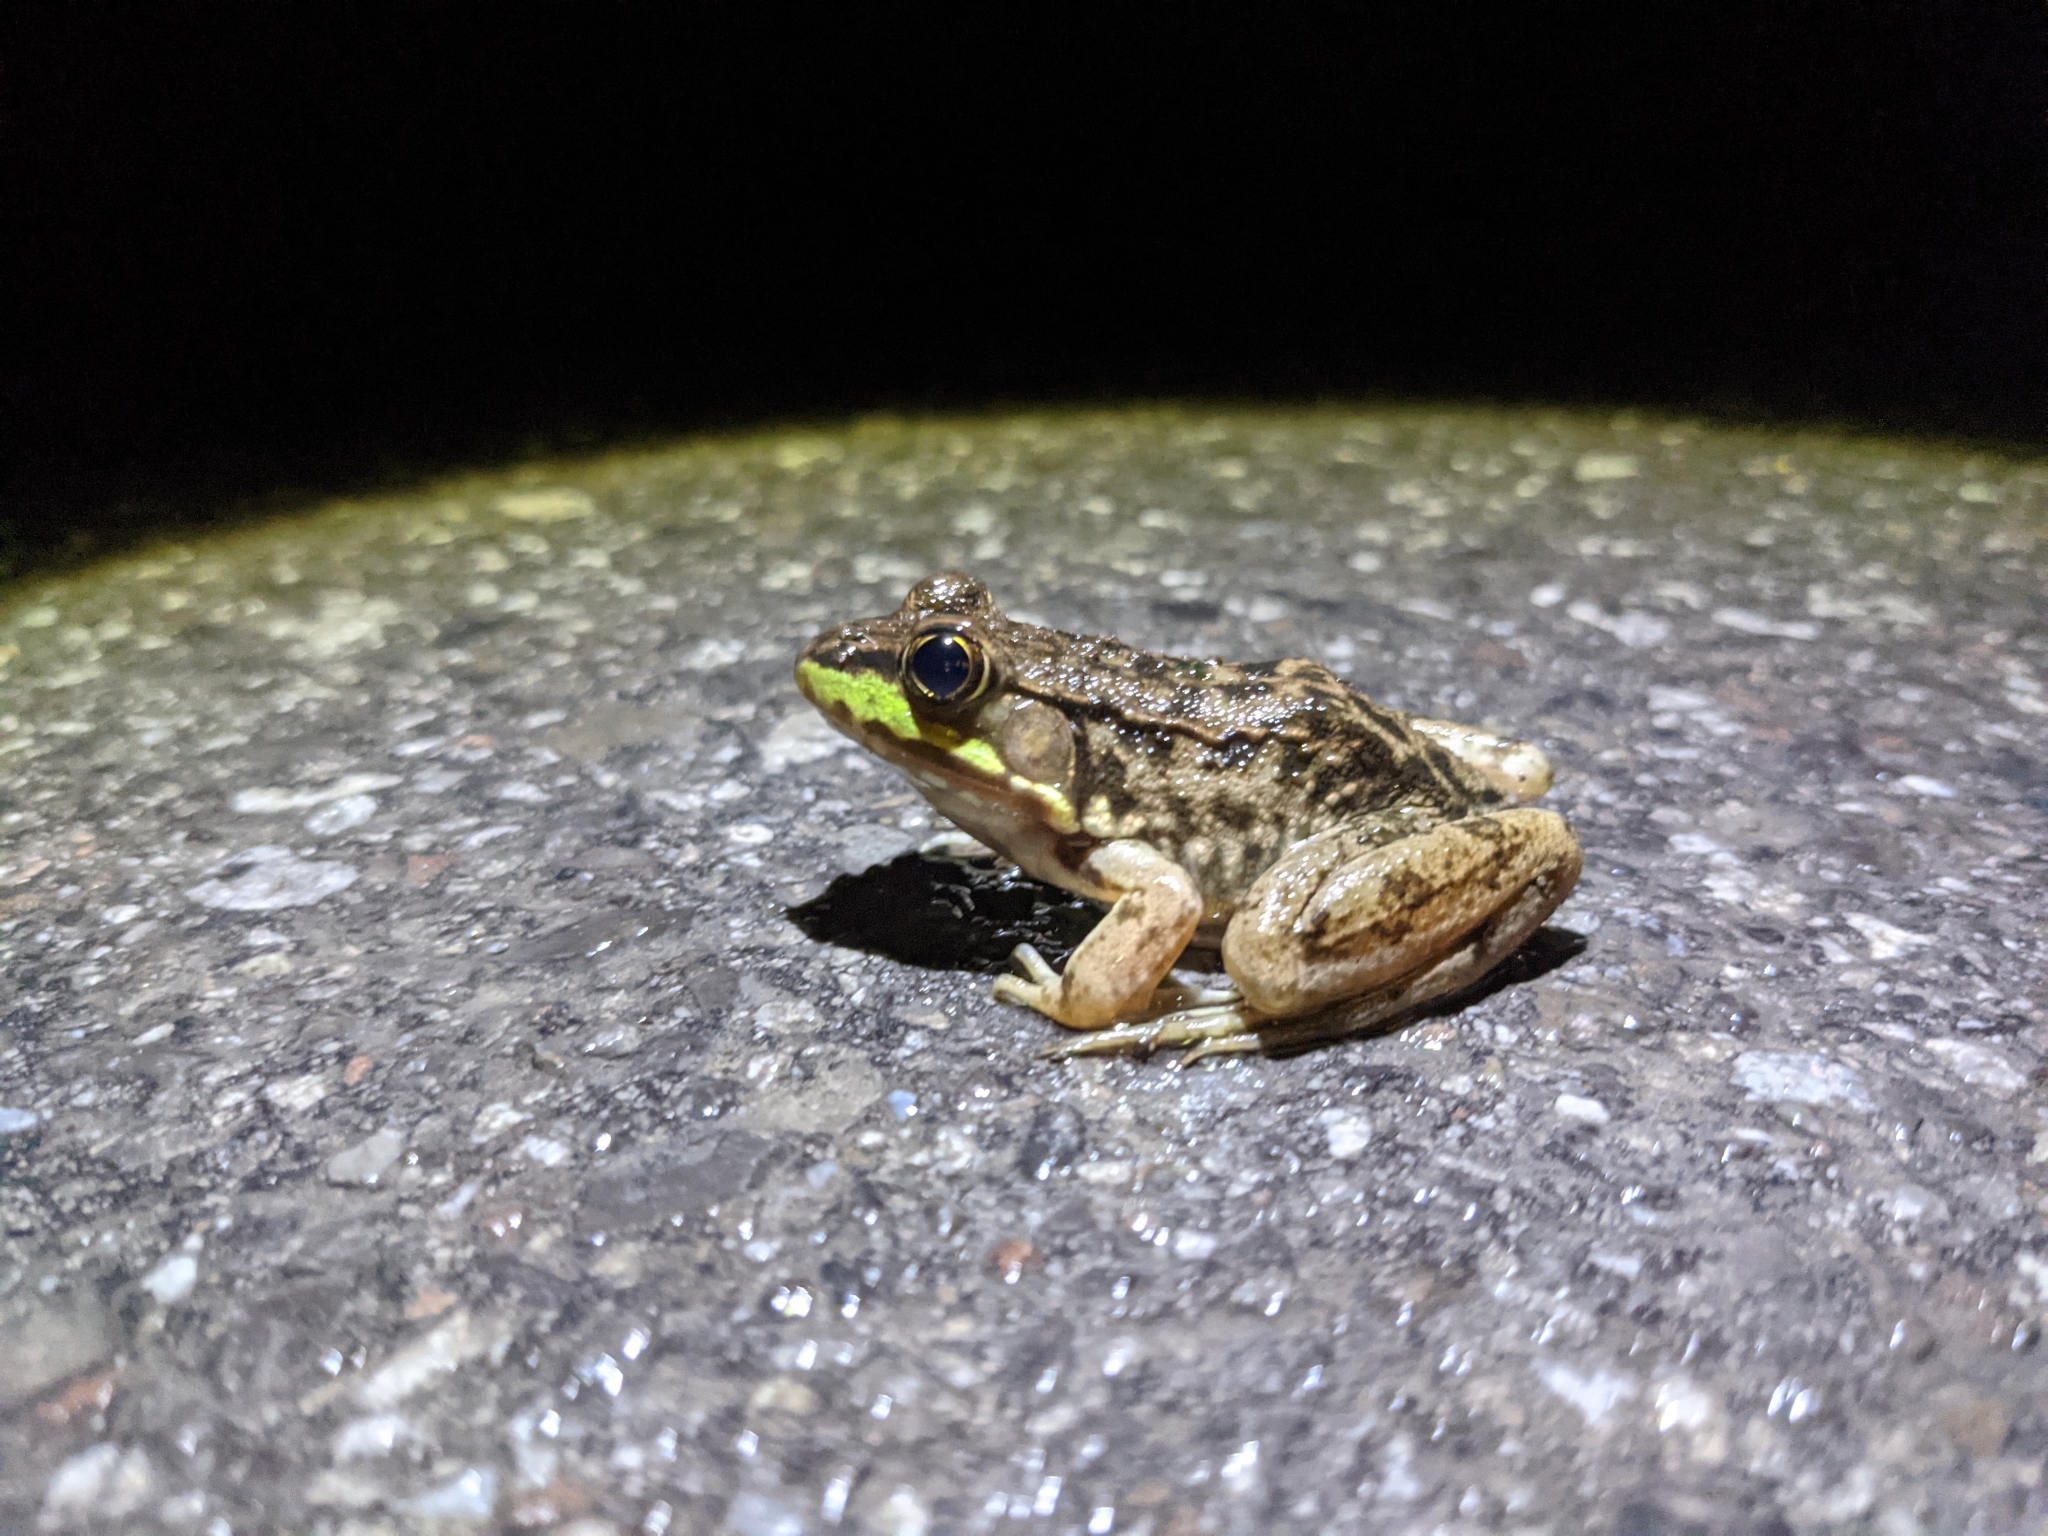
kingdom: Animalia
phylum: Chordata
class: Amphibia
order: Anura
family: Ranidae
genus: Lithobates
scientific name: Lithobates clamitans
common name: Green frog
